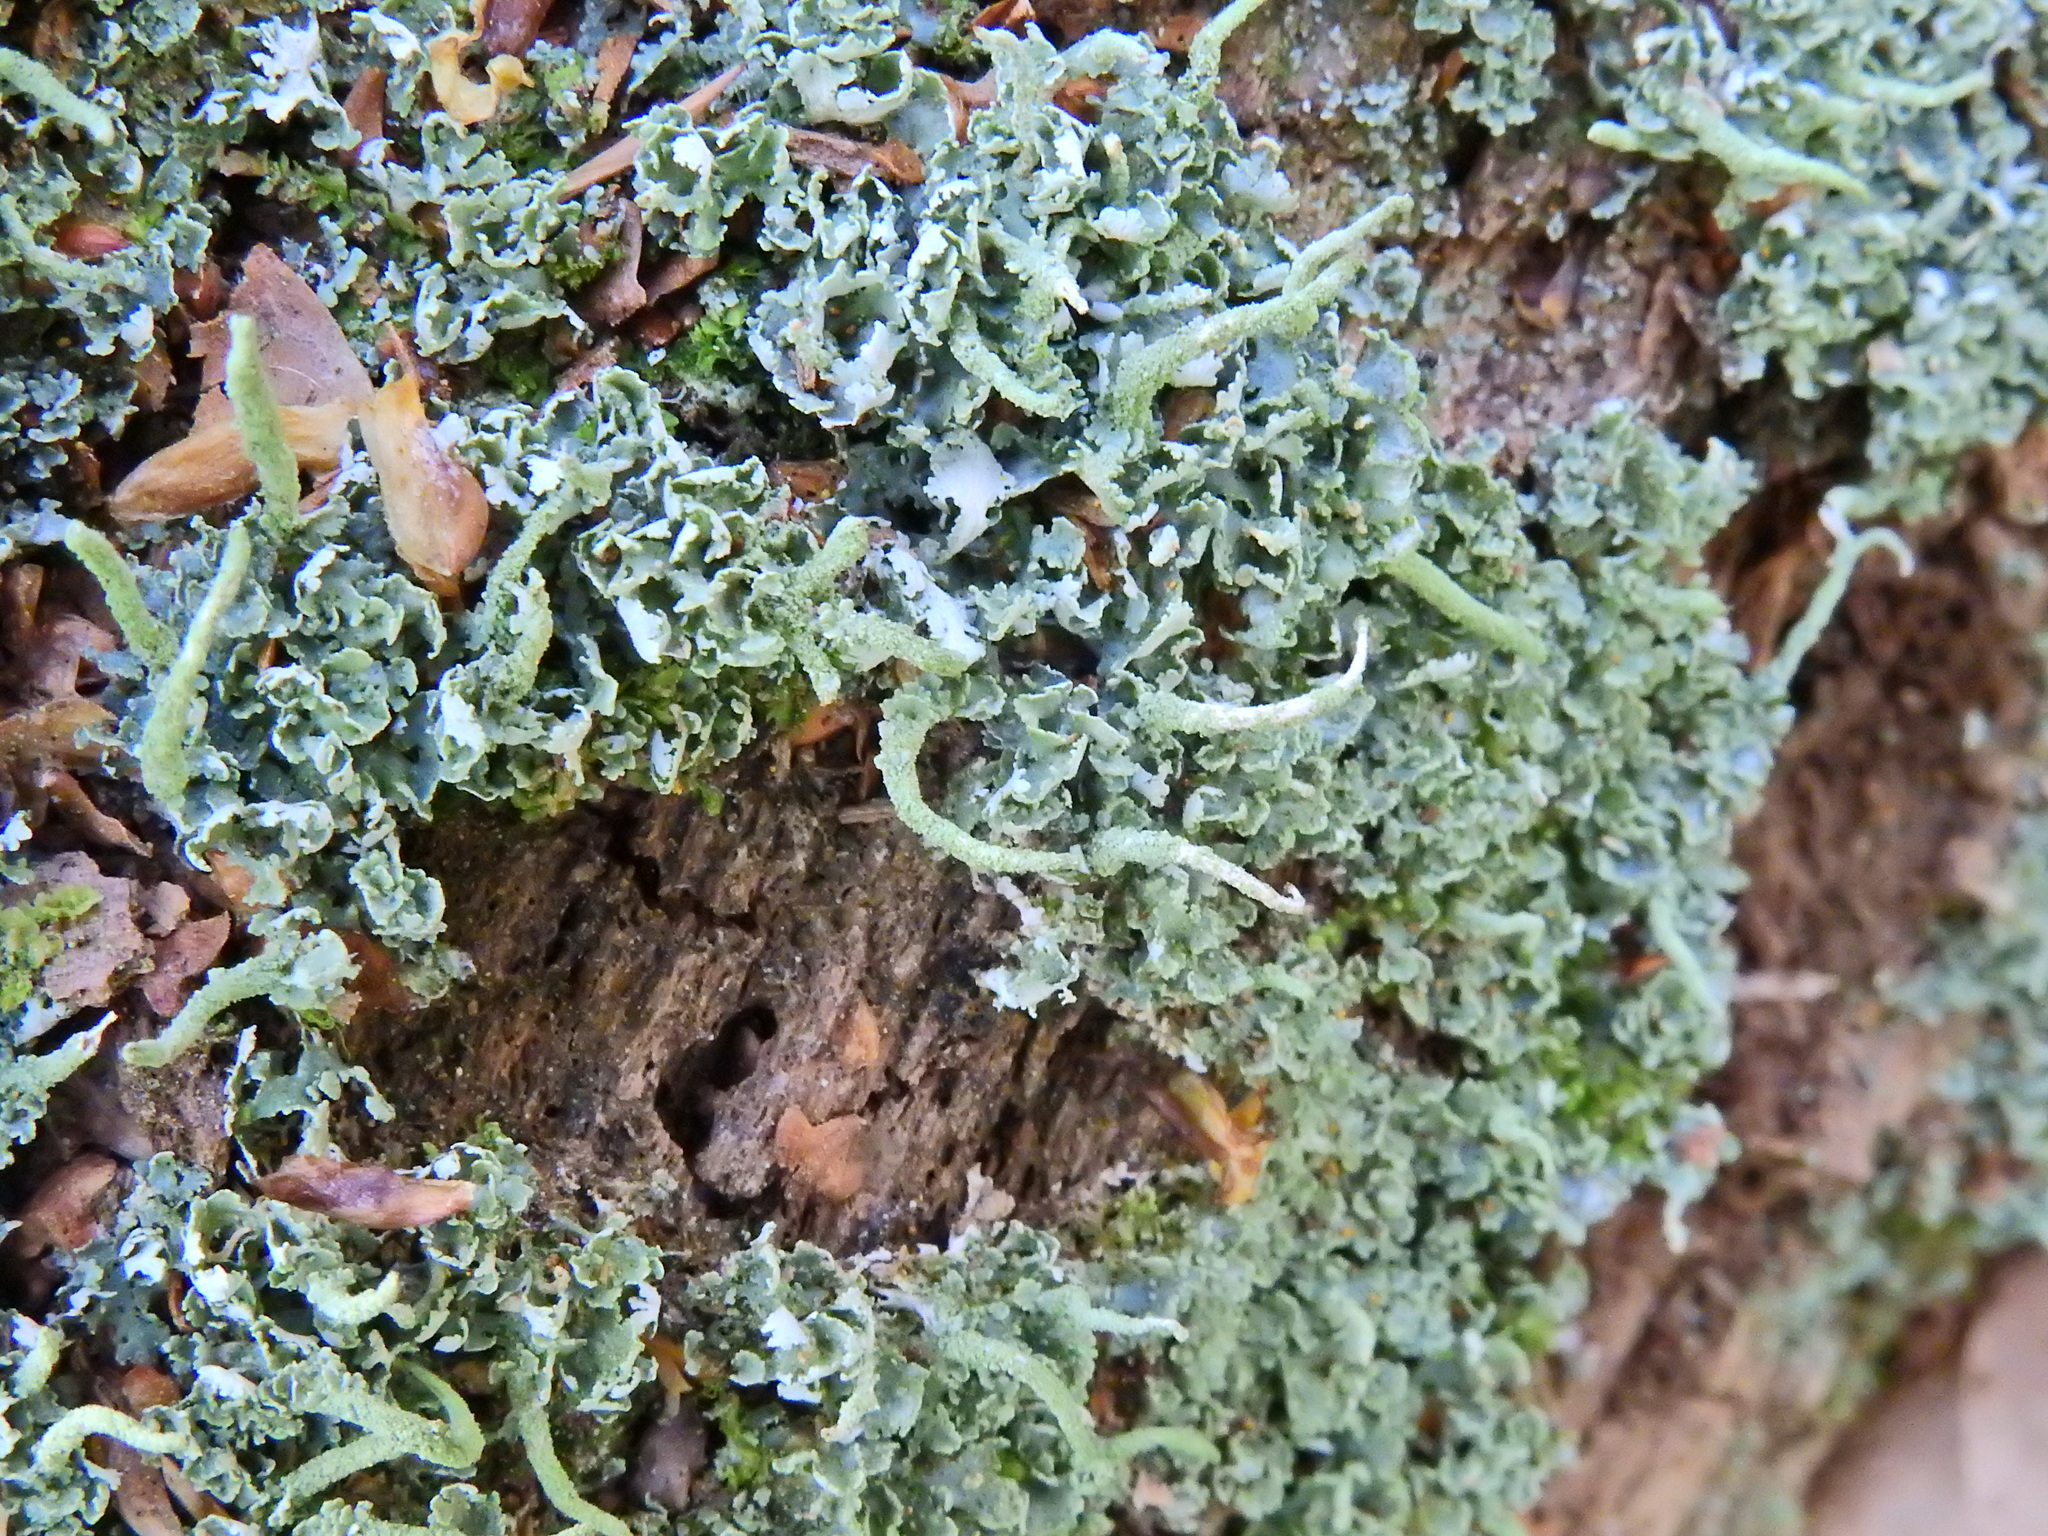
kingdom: Fungi
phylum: Ascomycota
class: Lecanoromycetes
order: Lecanorales
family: Cladoniaceae
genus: Cladonia
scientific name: Cladonia coniocraea
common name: Common powderhorn
